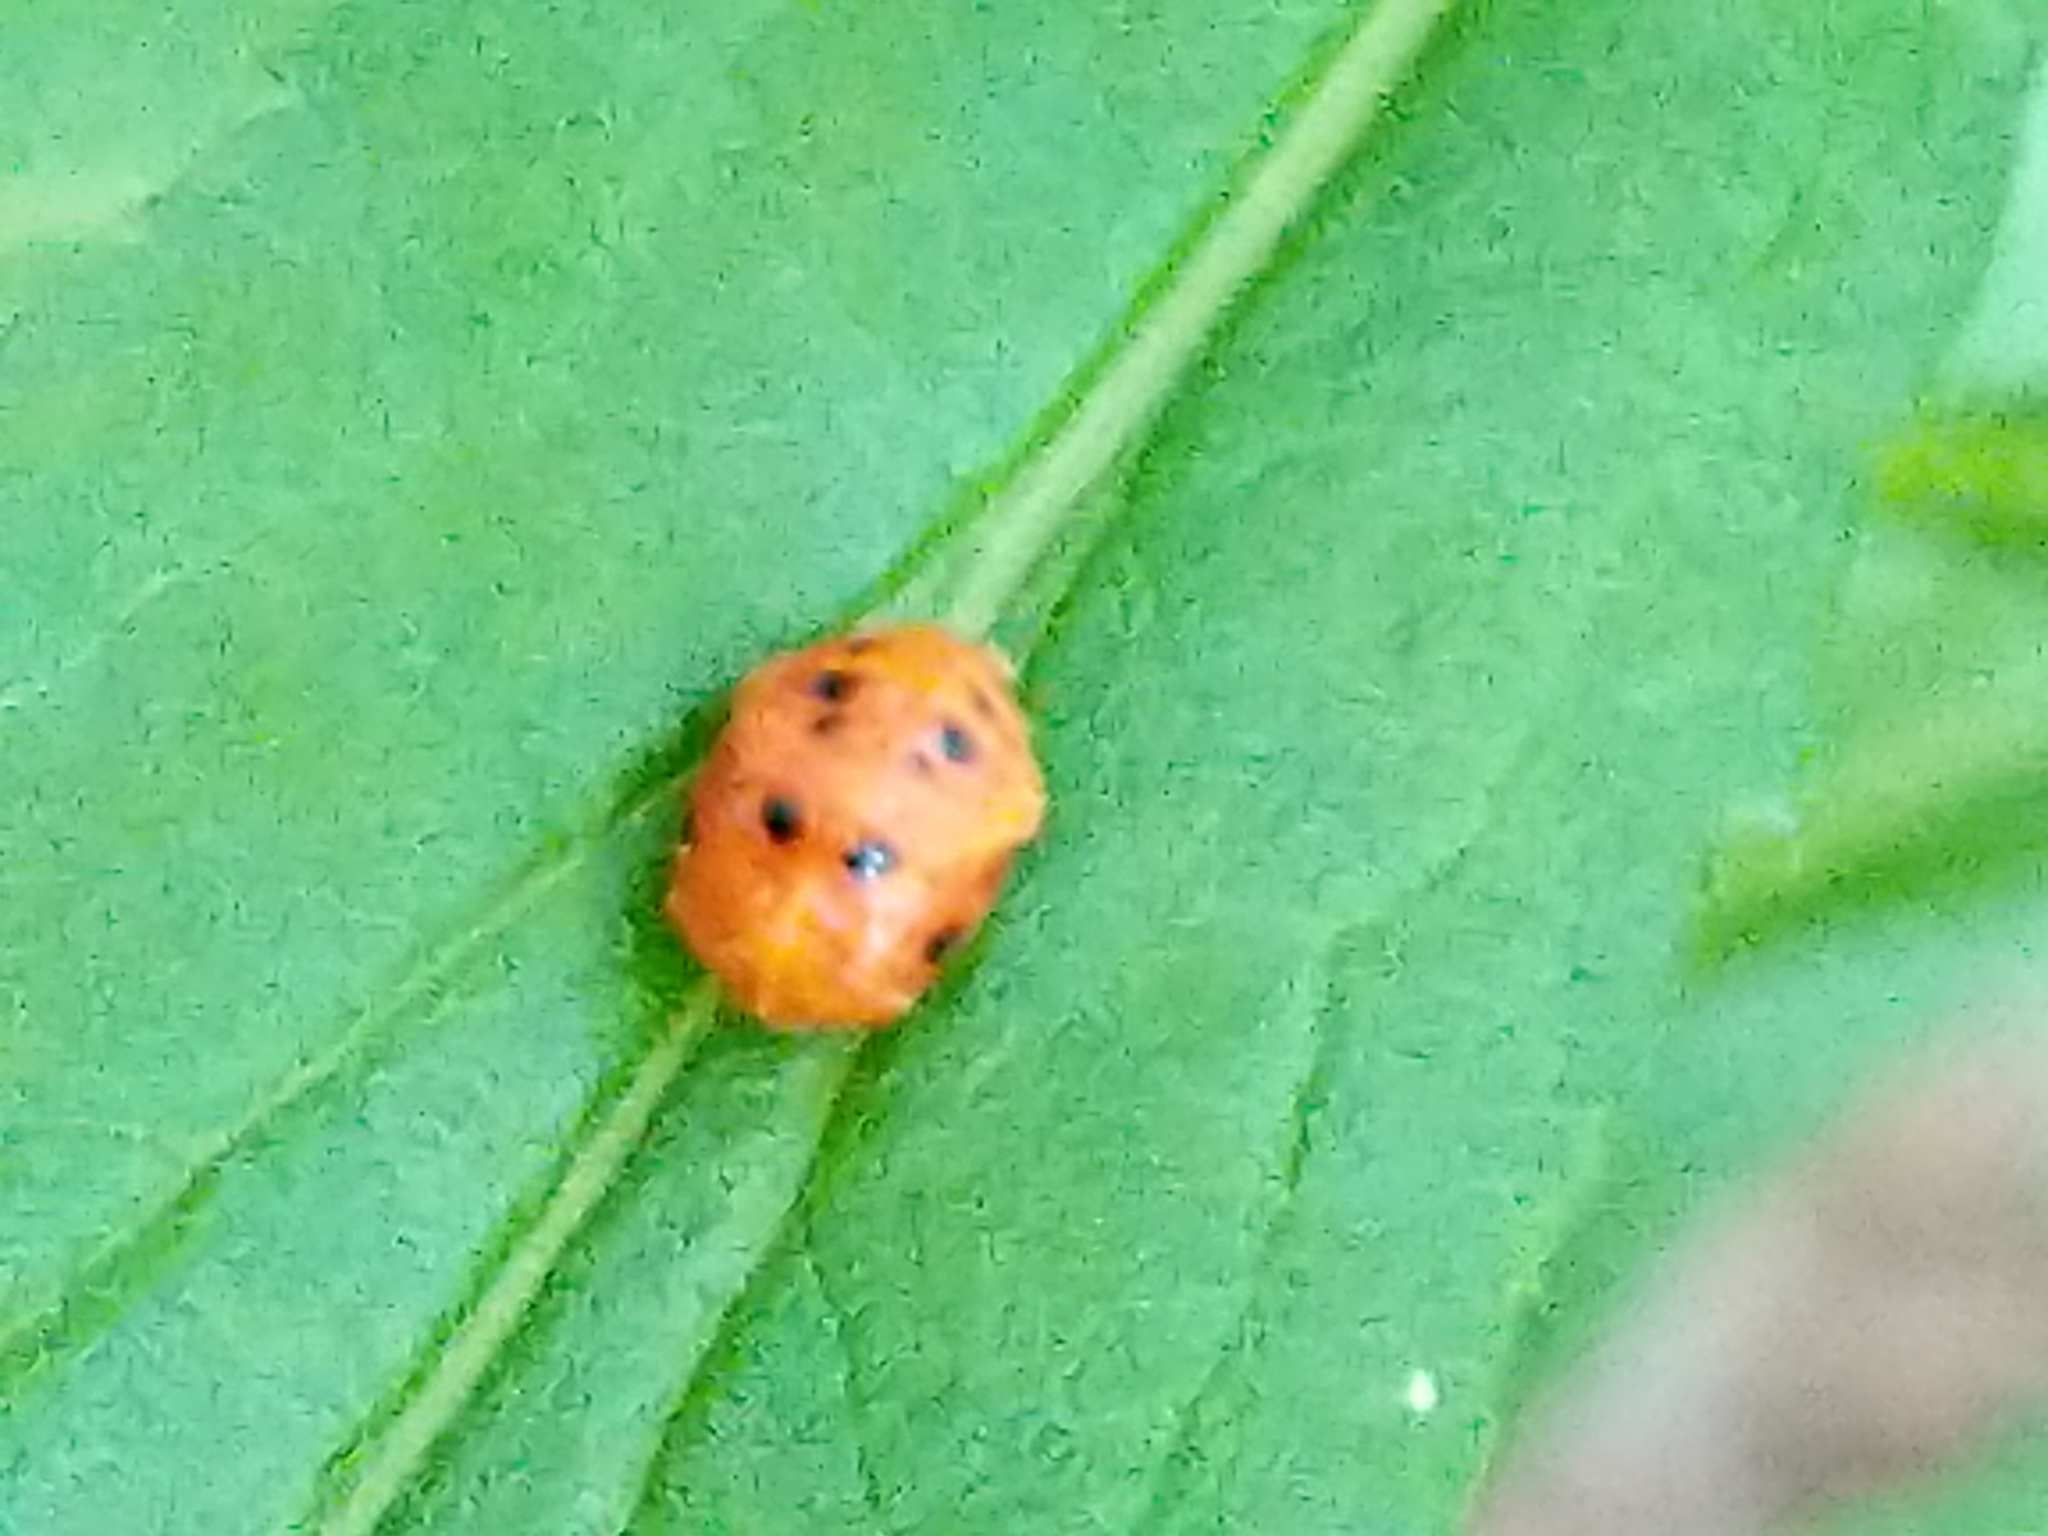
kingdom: Animalia
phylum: Arthropoda
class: Insecta
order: Coleoptera
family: Coccinellidae
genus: Harmonia
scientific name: Harmonia axyridis
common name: Harlequin ladybird
